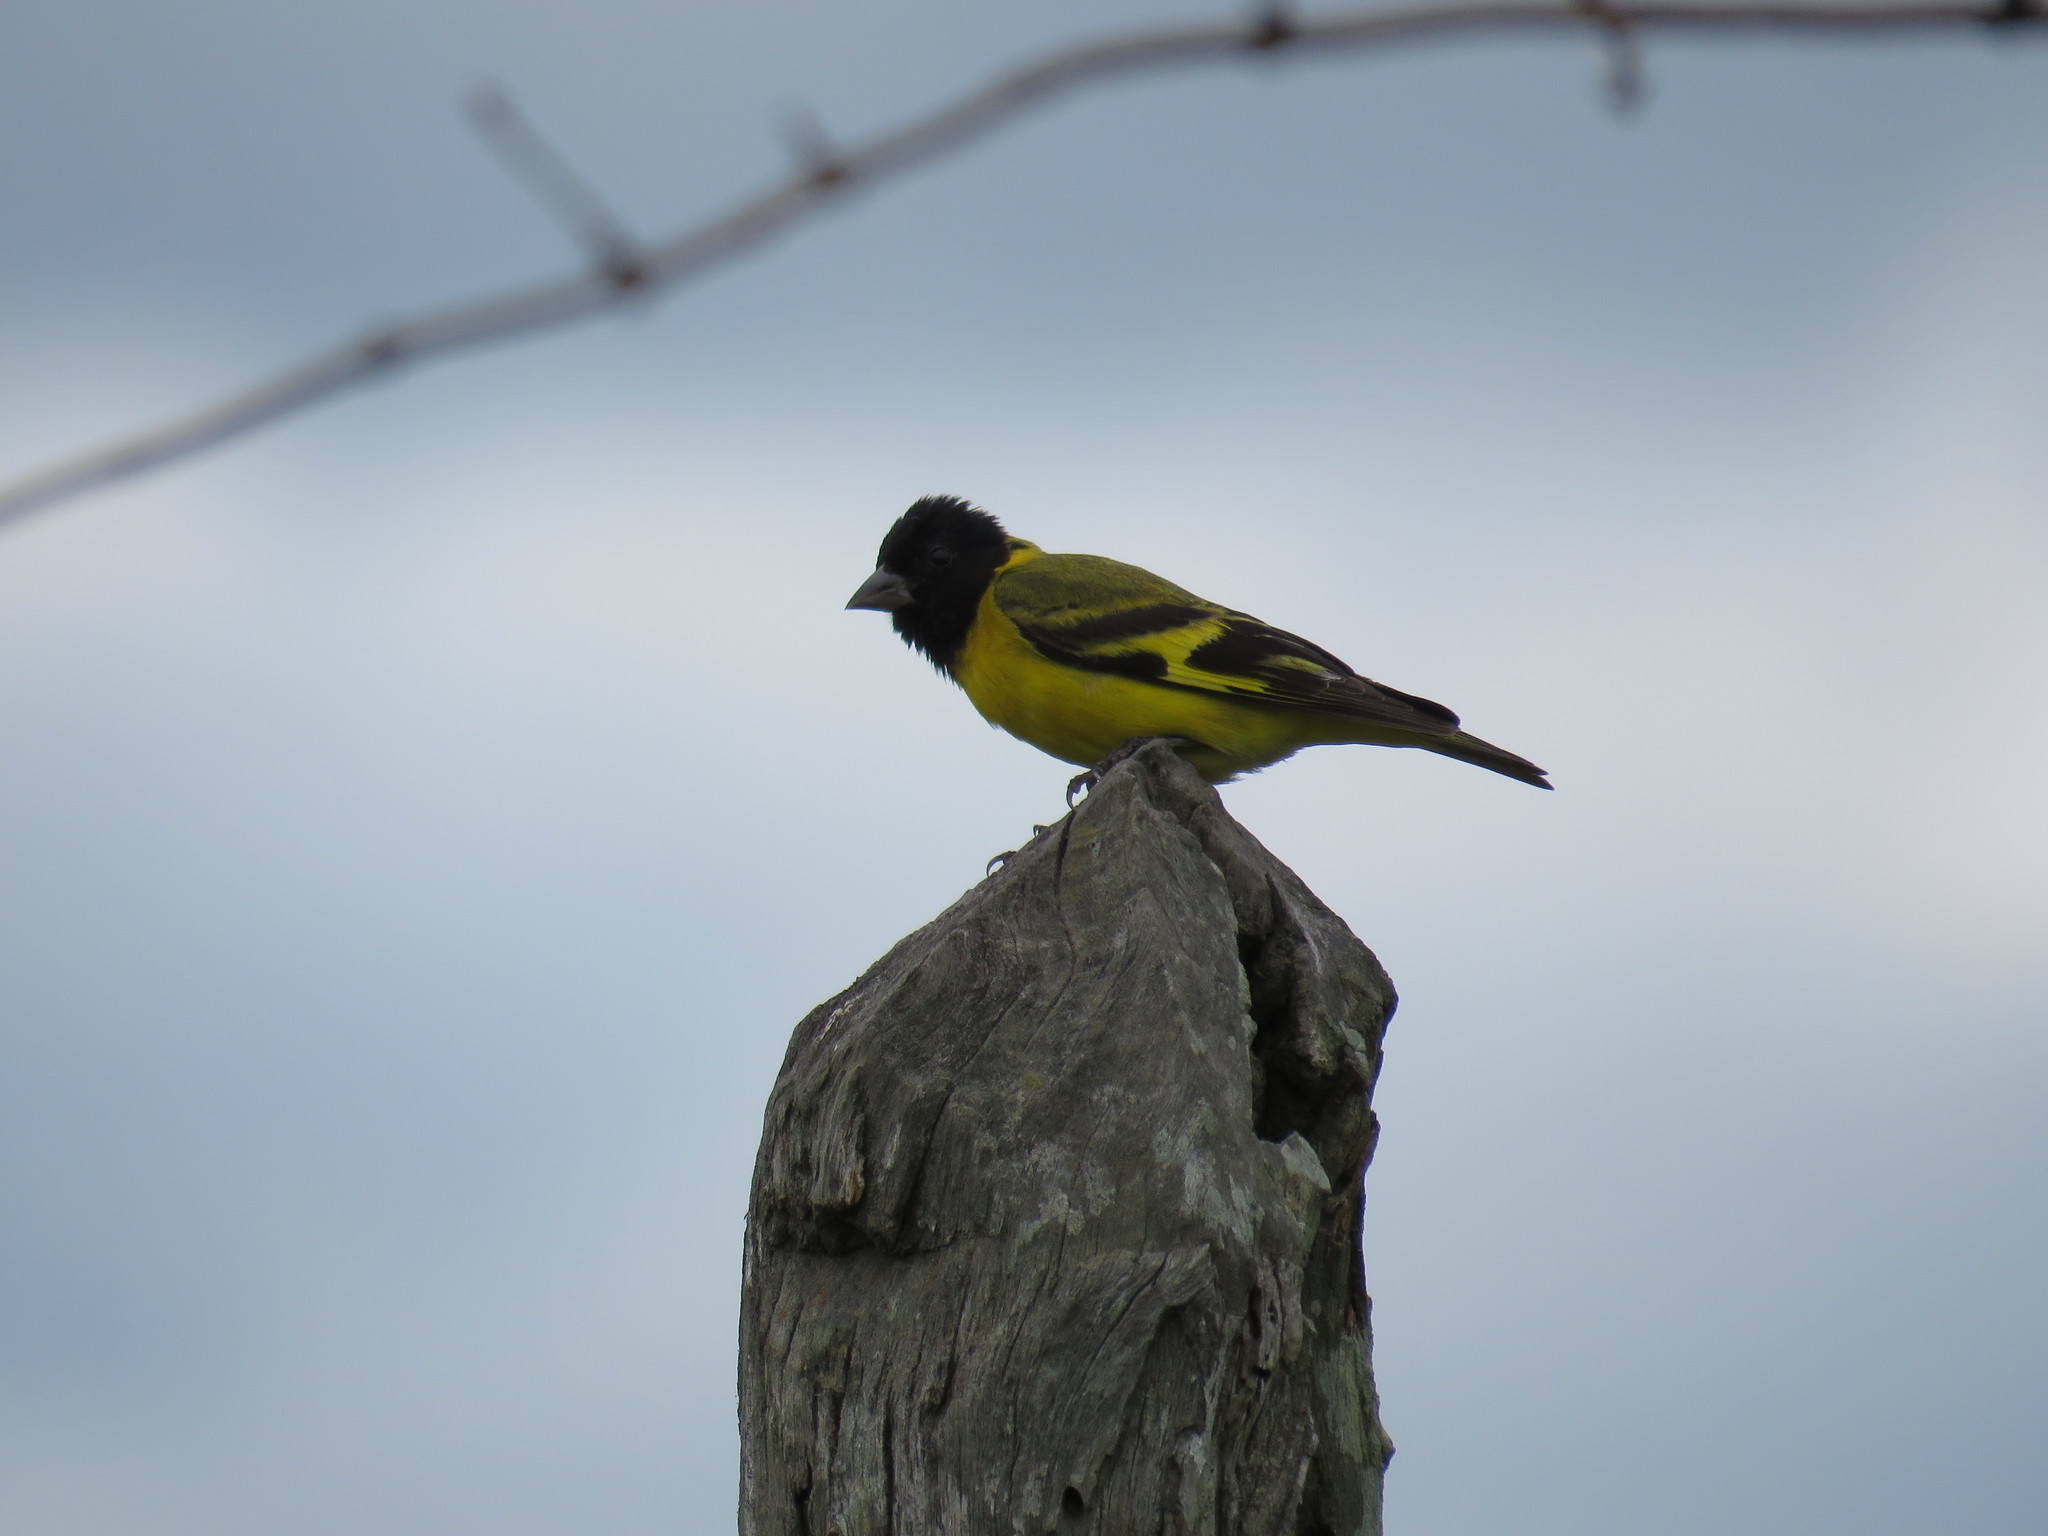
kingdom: Animalia
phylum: Chordata
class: Aves
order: Passeriformes
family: Fringillidae
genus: Spinus
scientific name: Spinus magellanicus
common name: Hooded siskin
